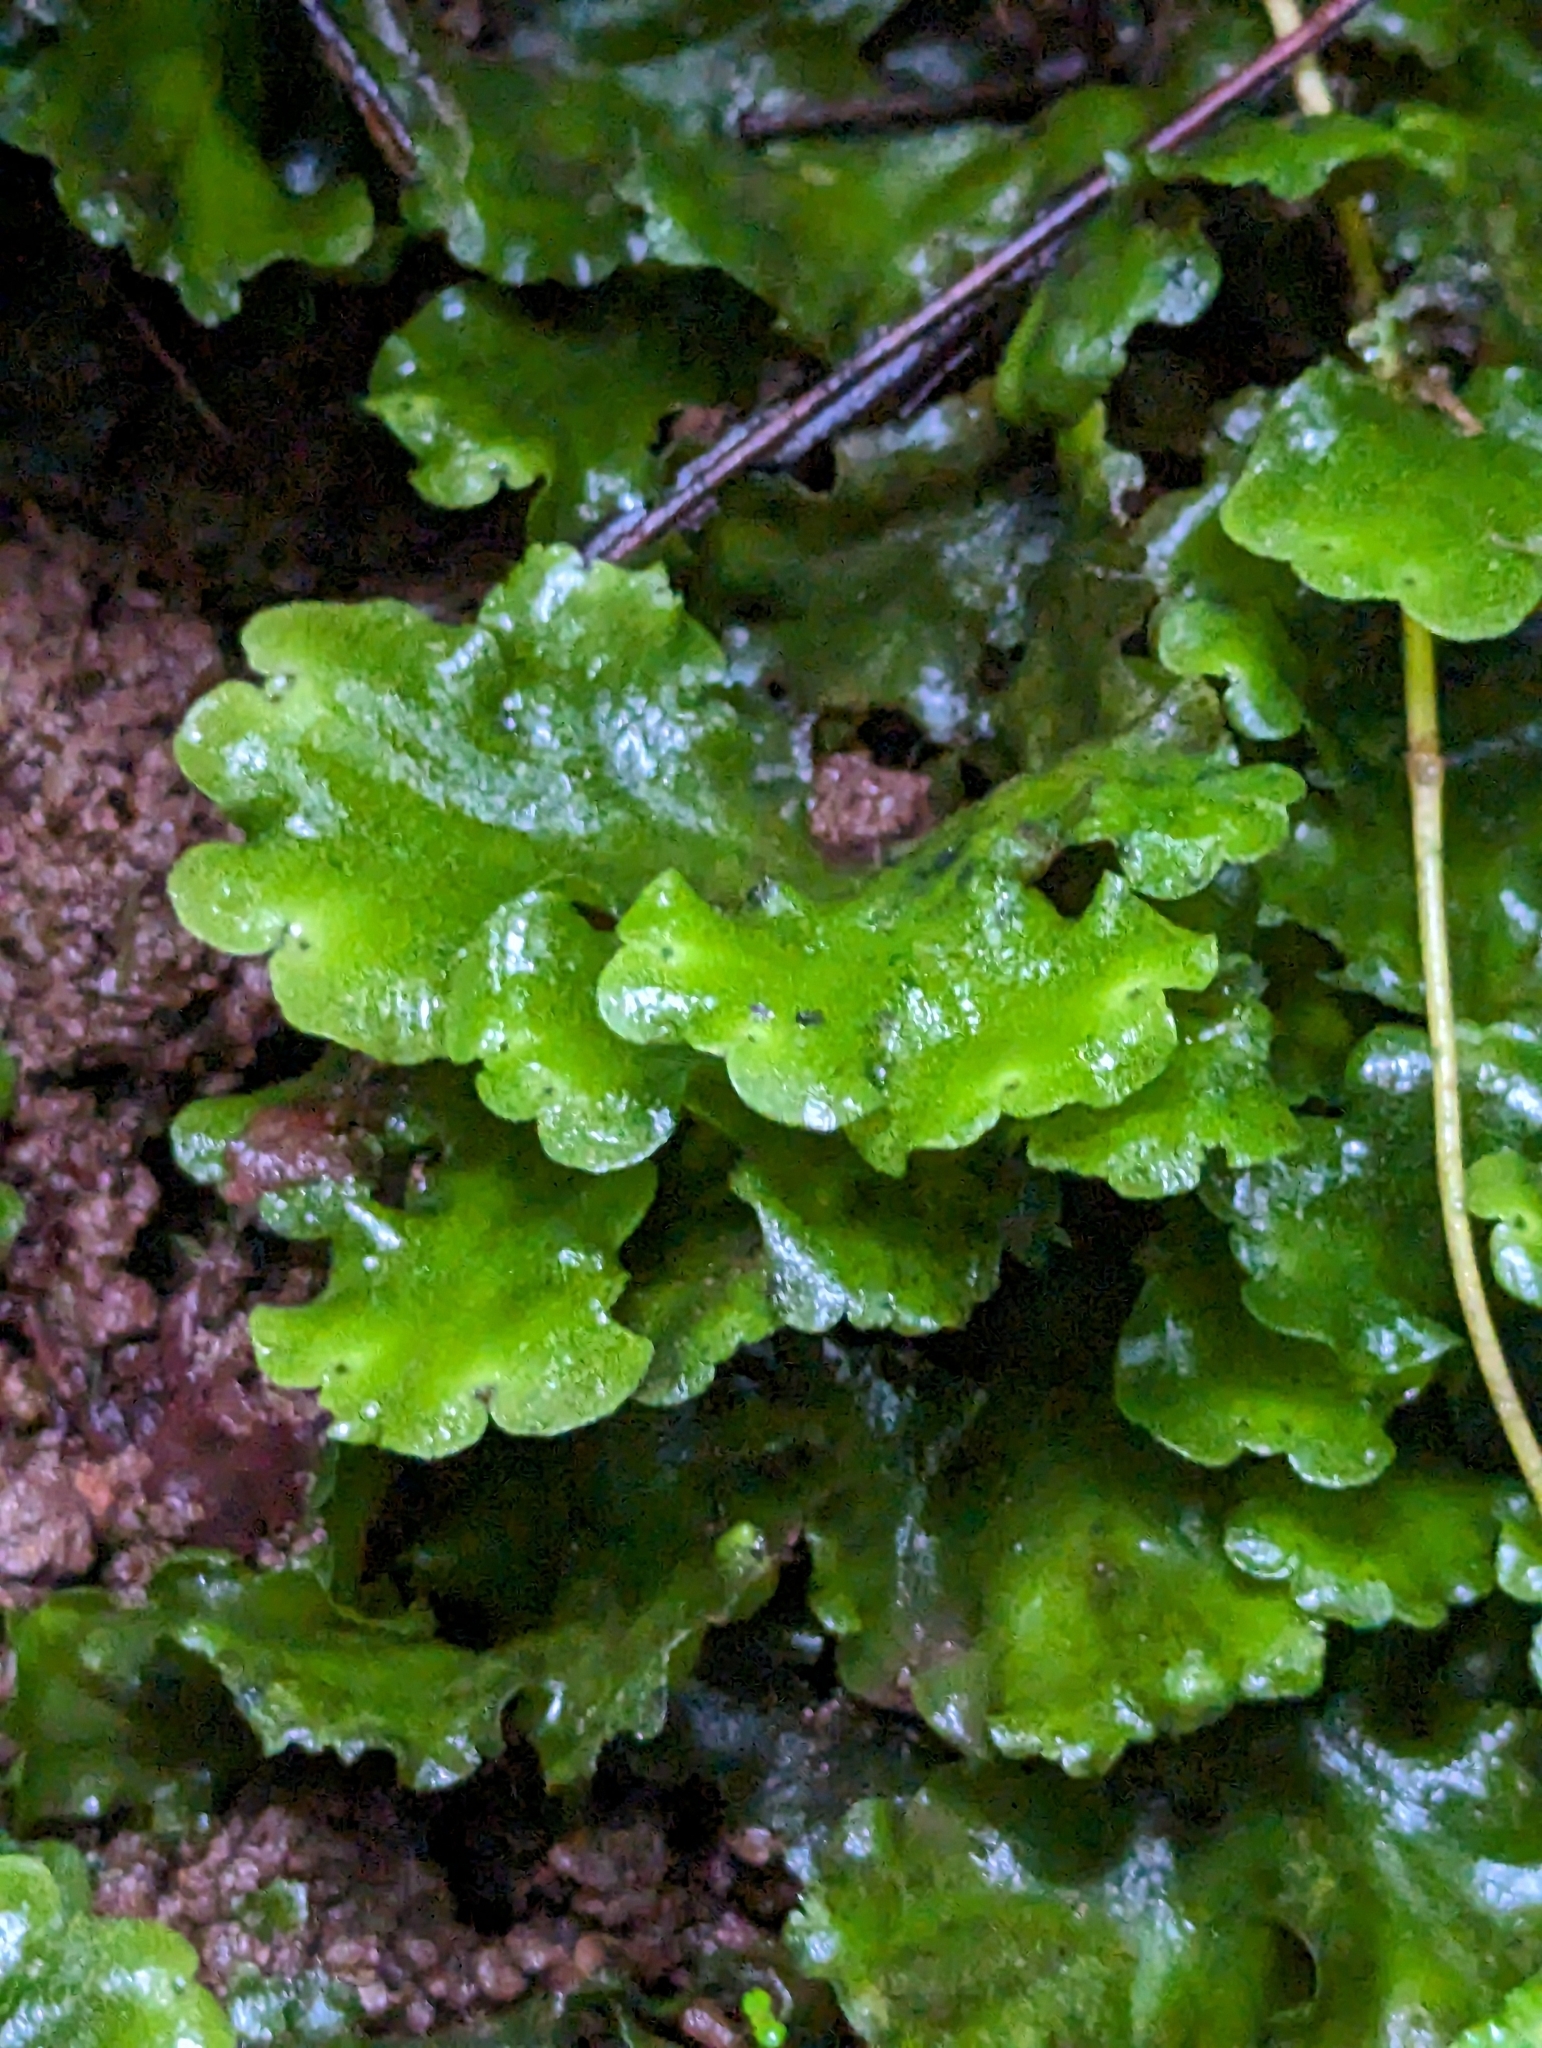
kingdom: Plantae
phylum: Marchantiophyta
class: Marchantiopsida
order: Marchantiales
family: Monocleaceae
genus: Monoclea
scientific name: Monoclea gottschei
